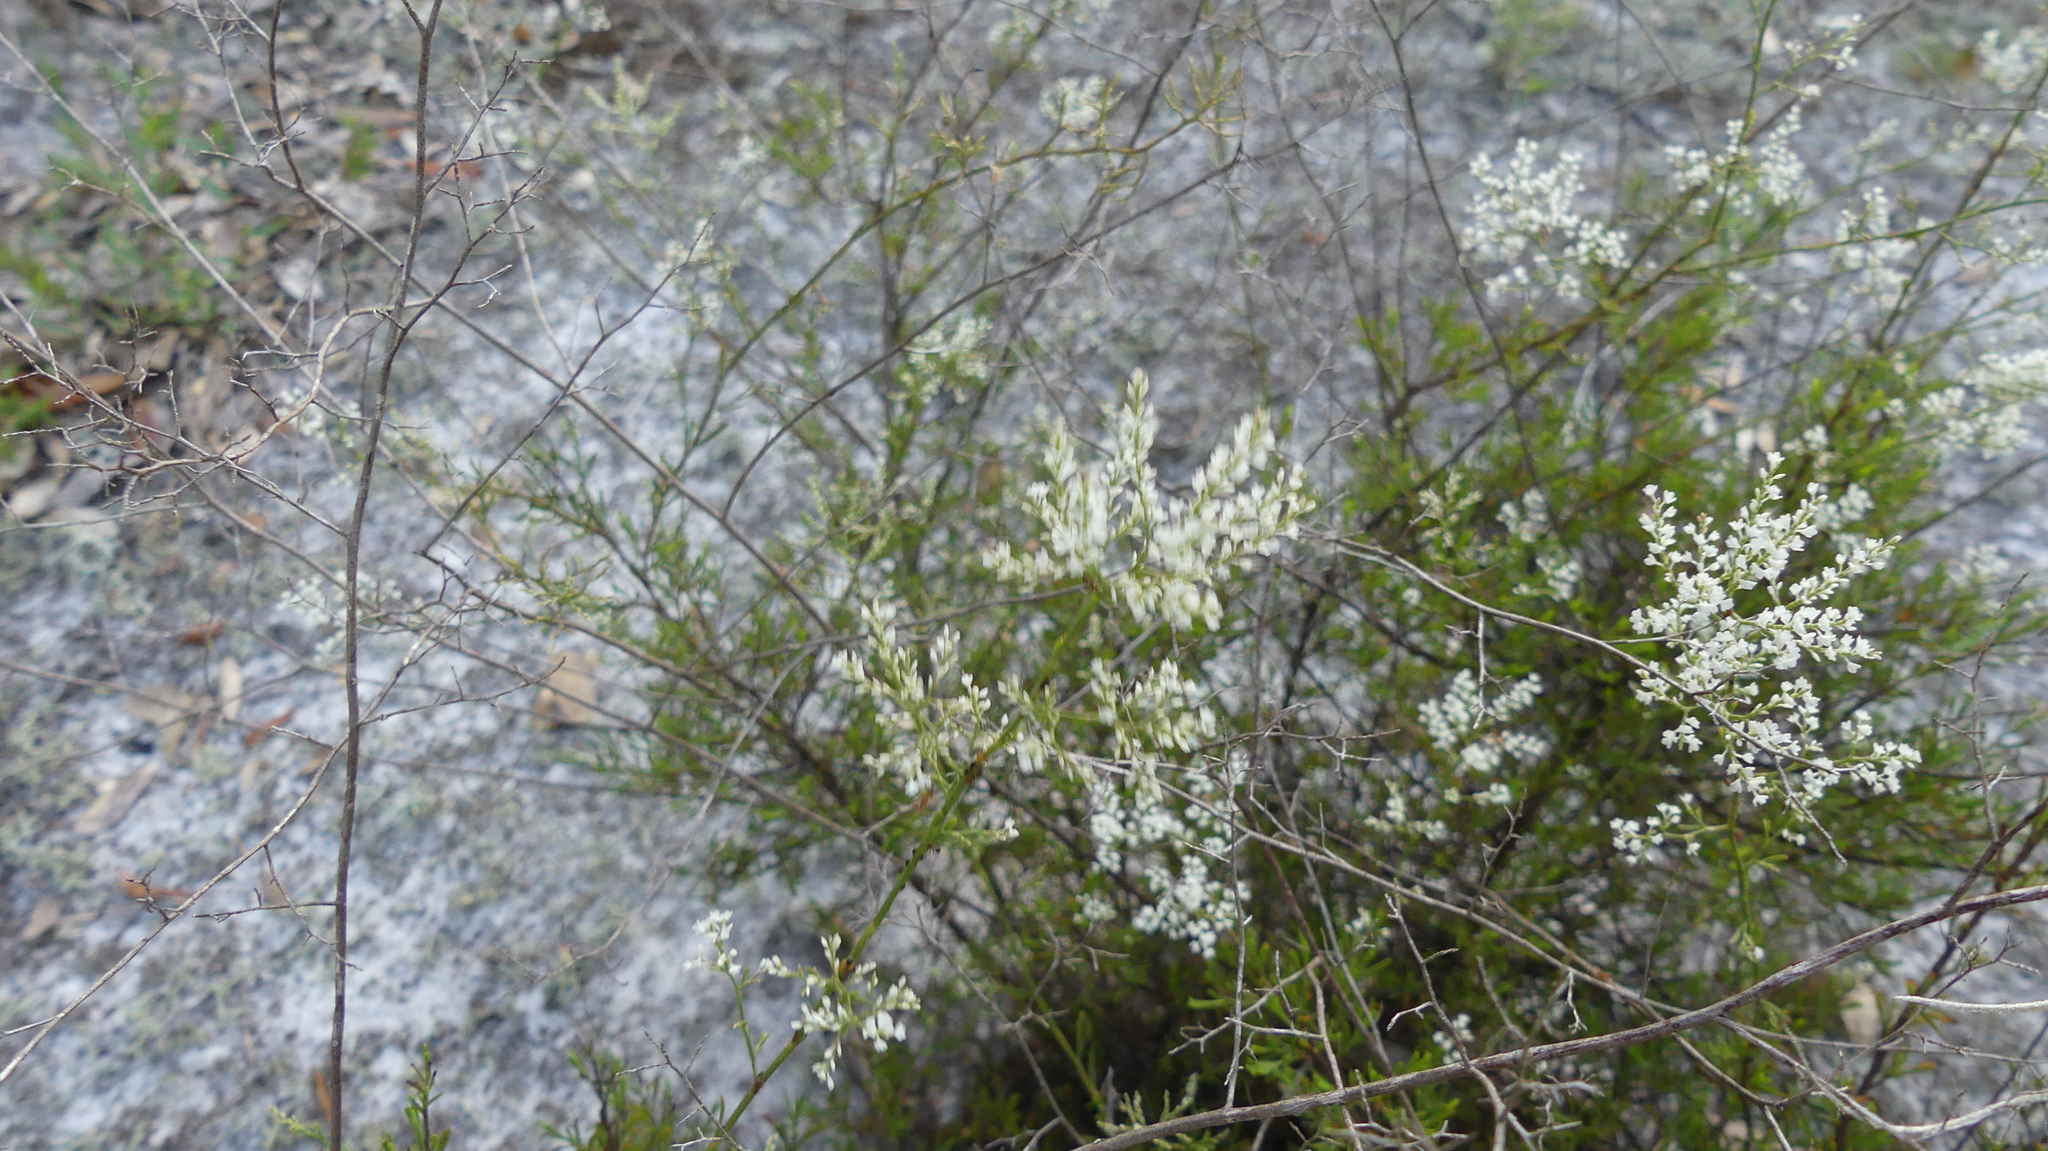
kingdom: Plantae
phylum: Tracheophyta
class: Magnoliopsida
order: Caryophyllales
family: Polygonaceae
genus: Polygonella
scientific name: Polygonella polygama
